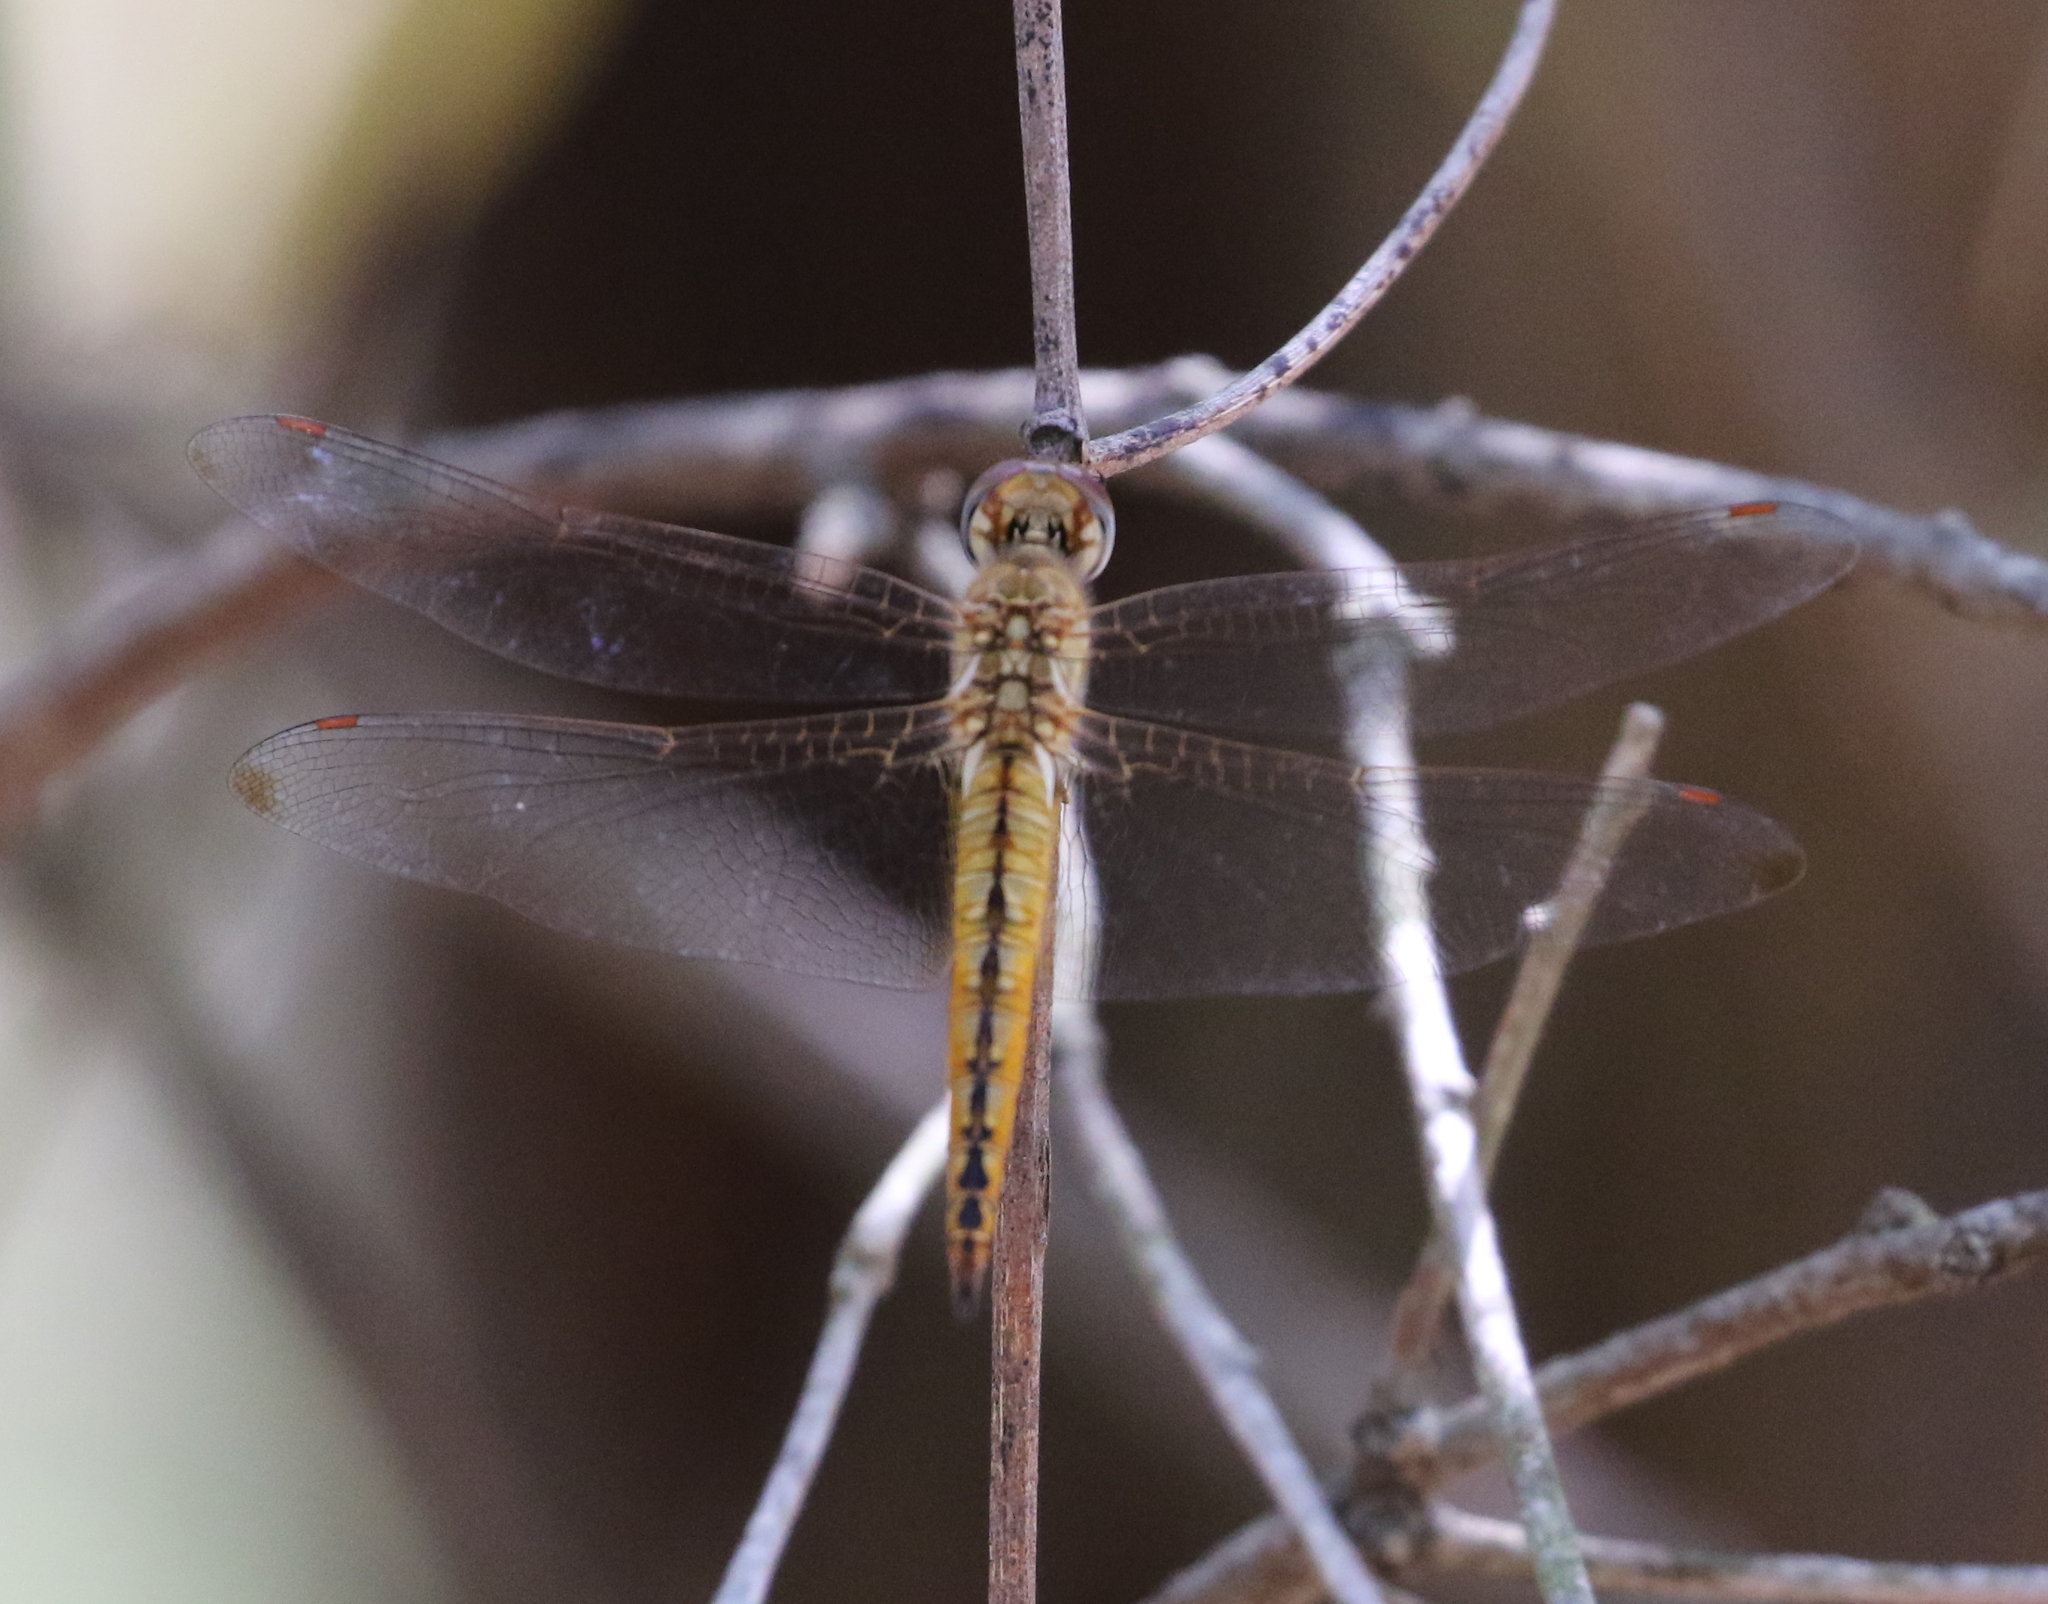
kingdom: Animalia
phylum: Arthropoda
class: Insecta
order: Odonata
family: Libellulidae
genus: Pantala
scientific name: Pantala flavescens
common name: Wandering glider
